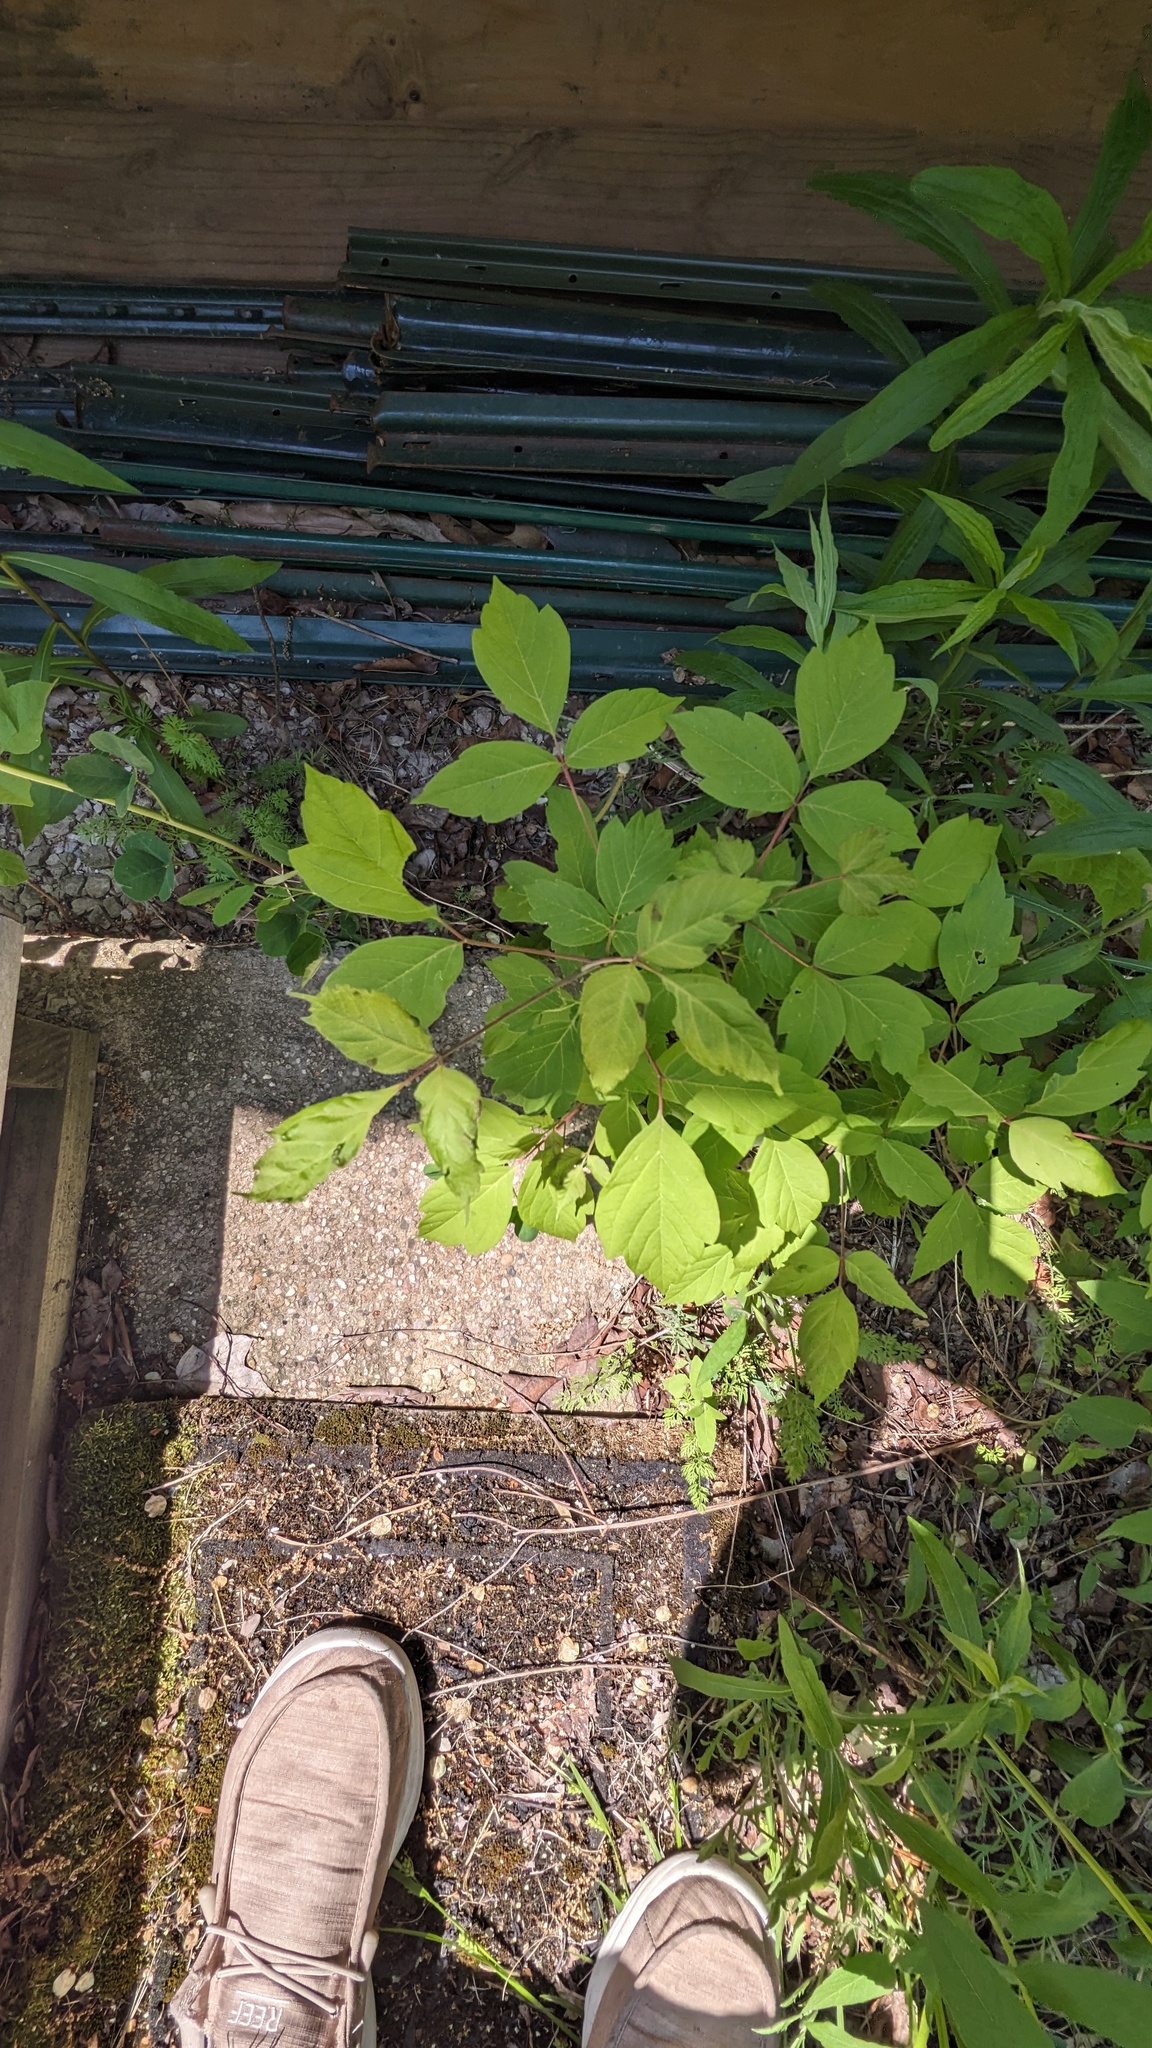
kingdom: Plantae
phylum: Tracheophyta
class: Magnoliopsida
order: Sapindales
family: Sapindaceae
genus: Acer
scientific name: Acer negundo
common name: Ashleaf maple
